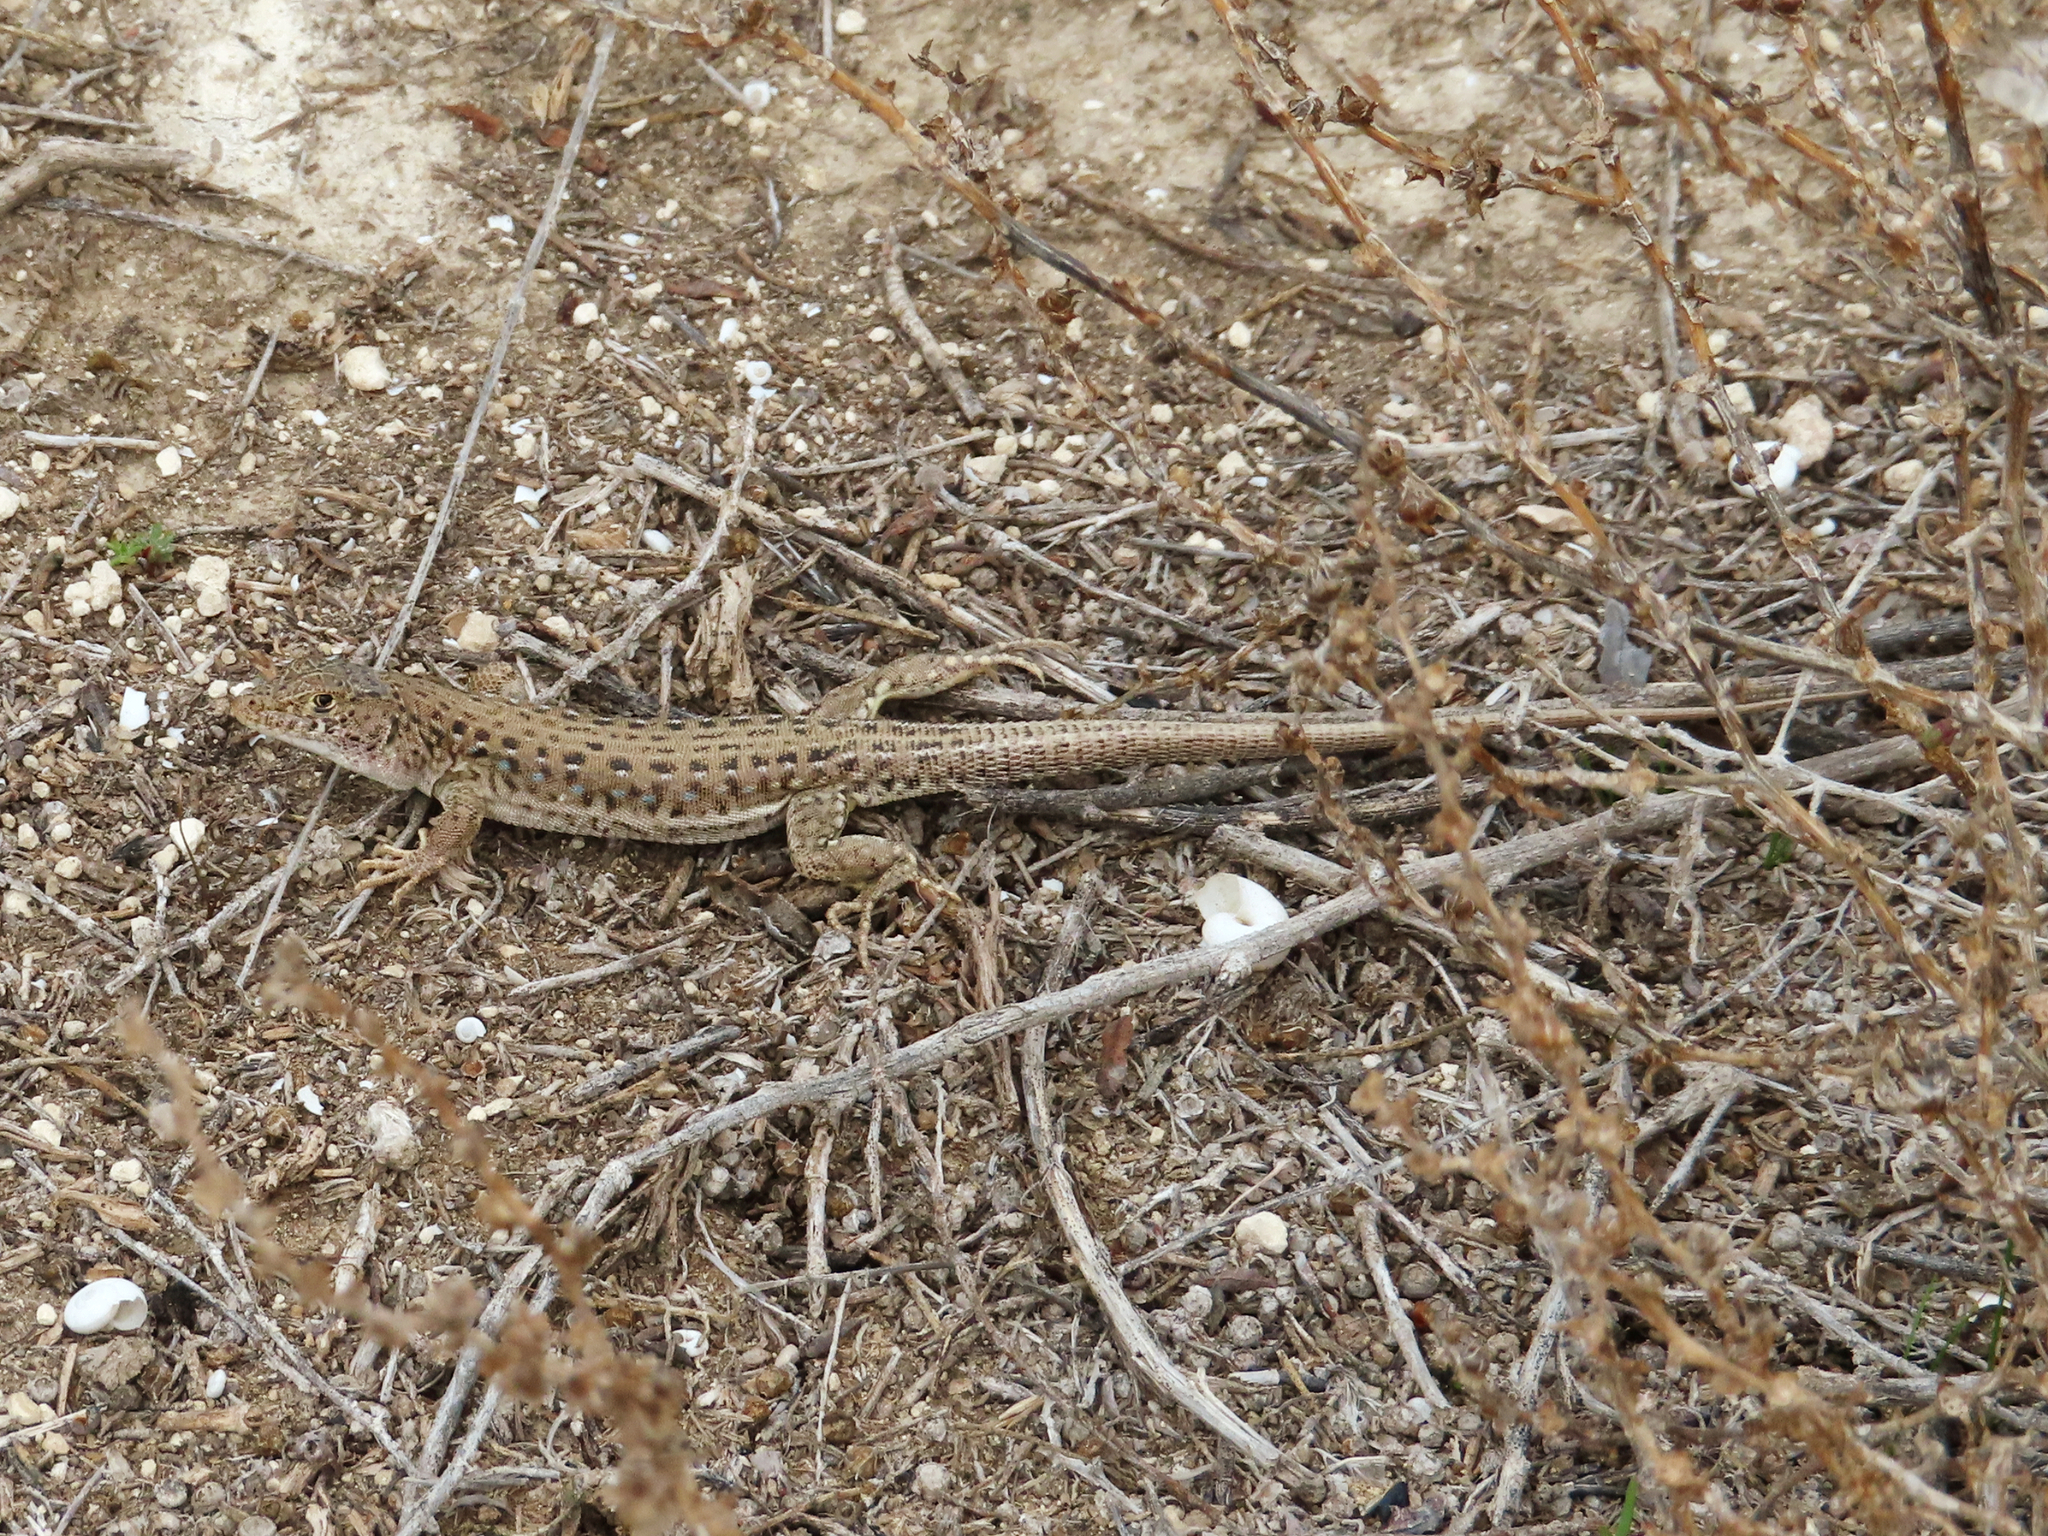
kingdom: Animalia
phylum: Chordata
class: Squamata
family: Lacertidae
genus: Eremias
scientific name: Eremias strauchi
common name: Strauch's racerunner
